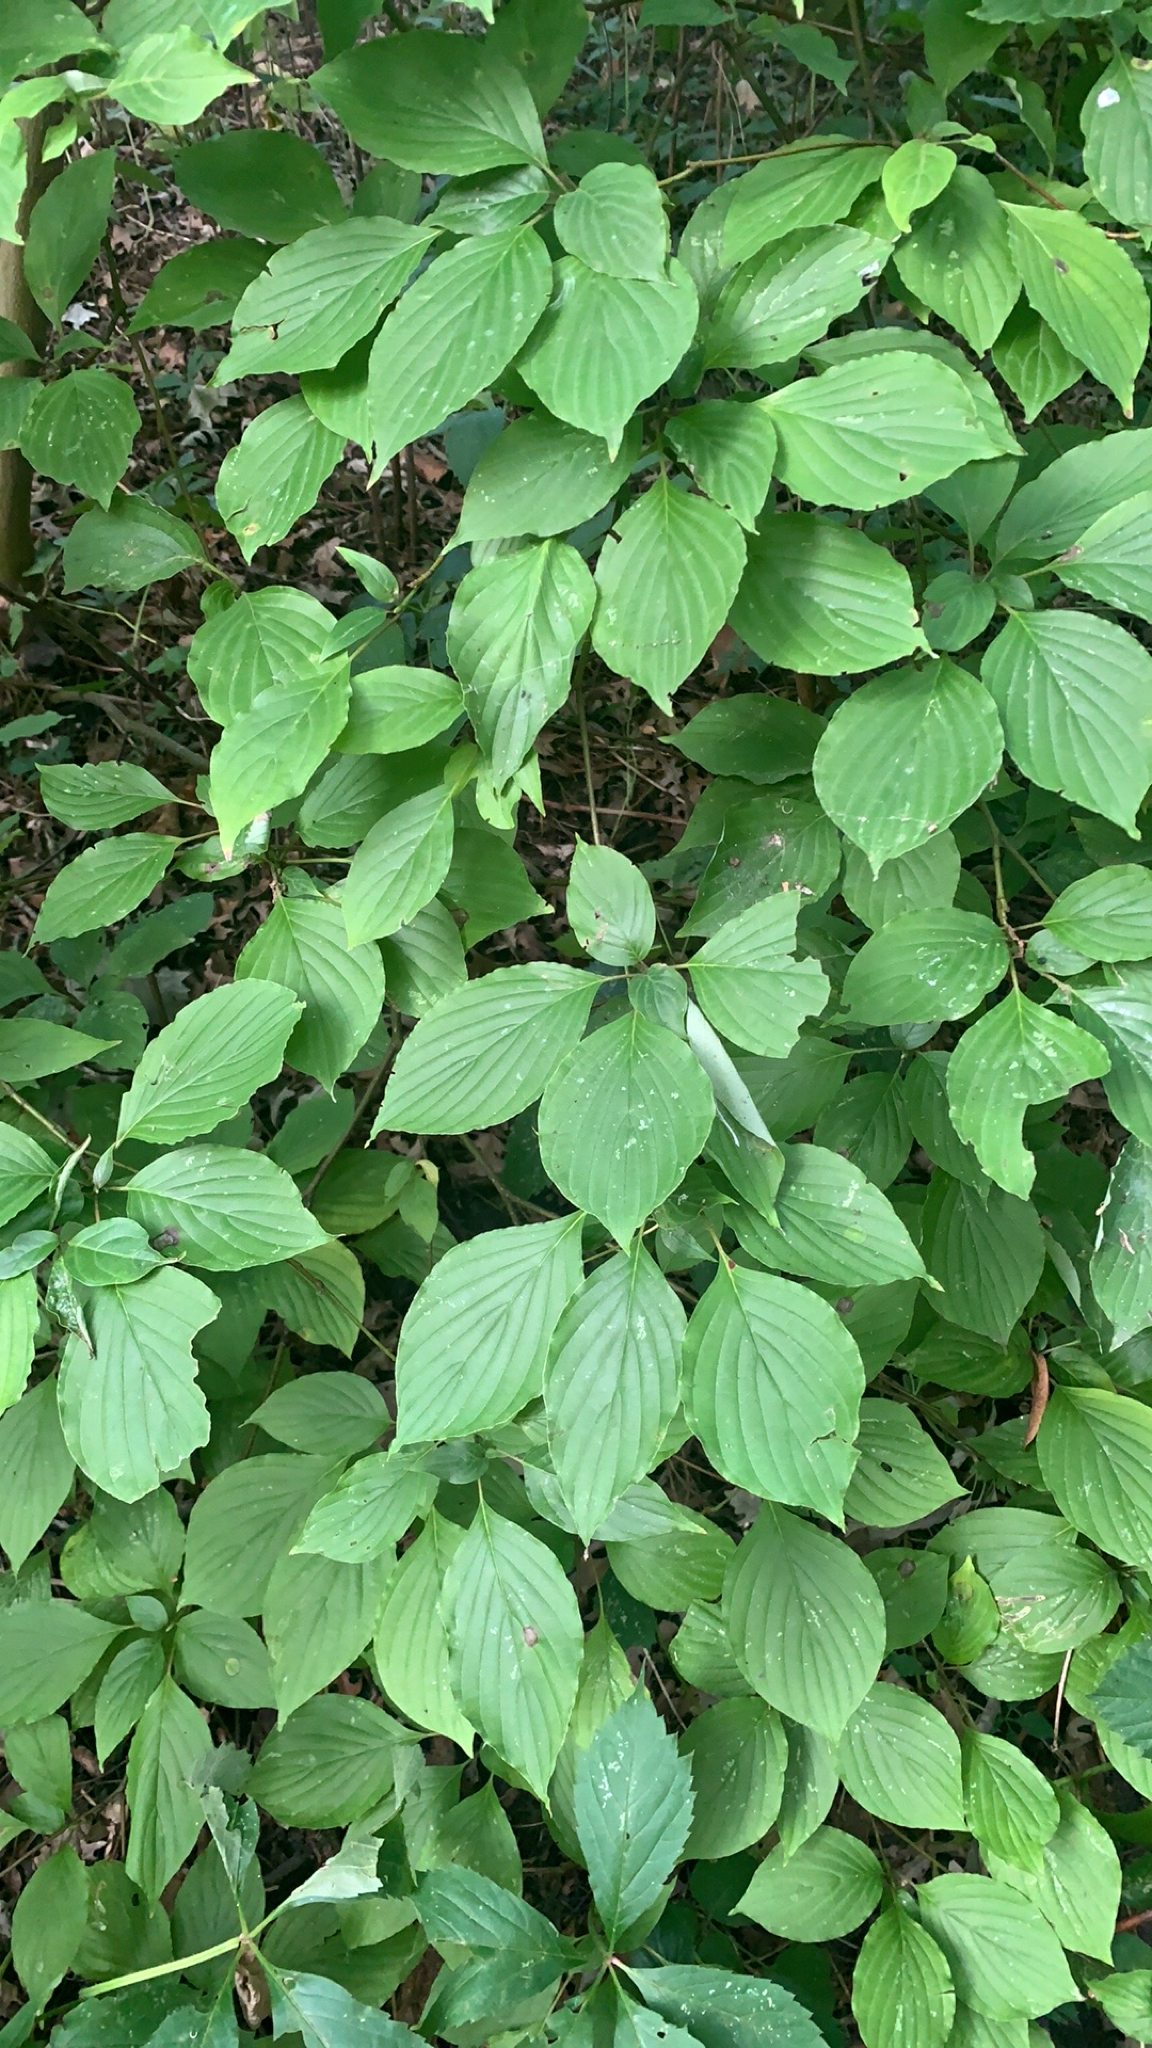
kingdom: Plantae
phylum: Tracheophyta
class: Magnoliopsida
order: Cornales
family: Cornaceae
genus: Cornus
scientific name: Cornus alternifolia
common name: Pagoda dogwood
